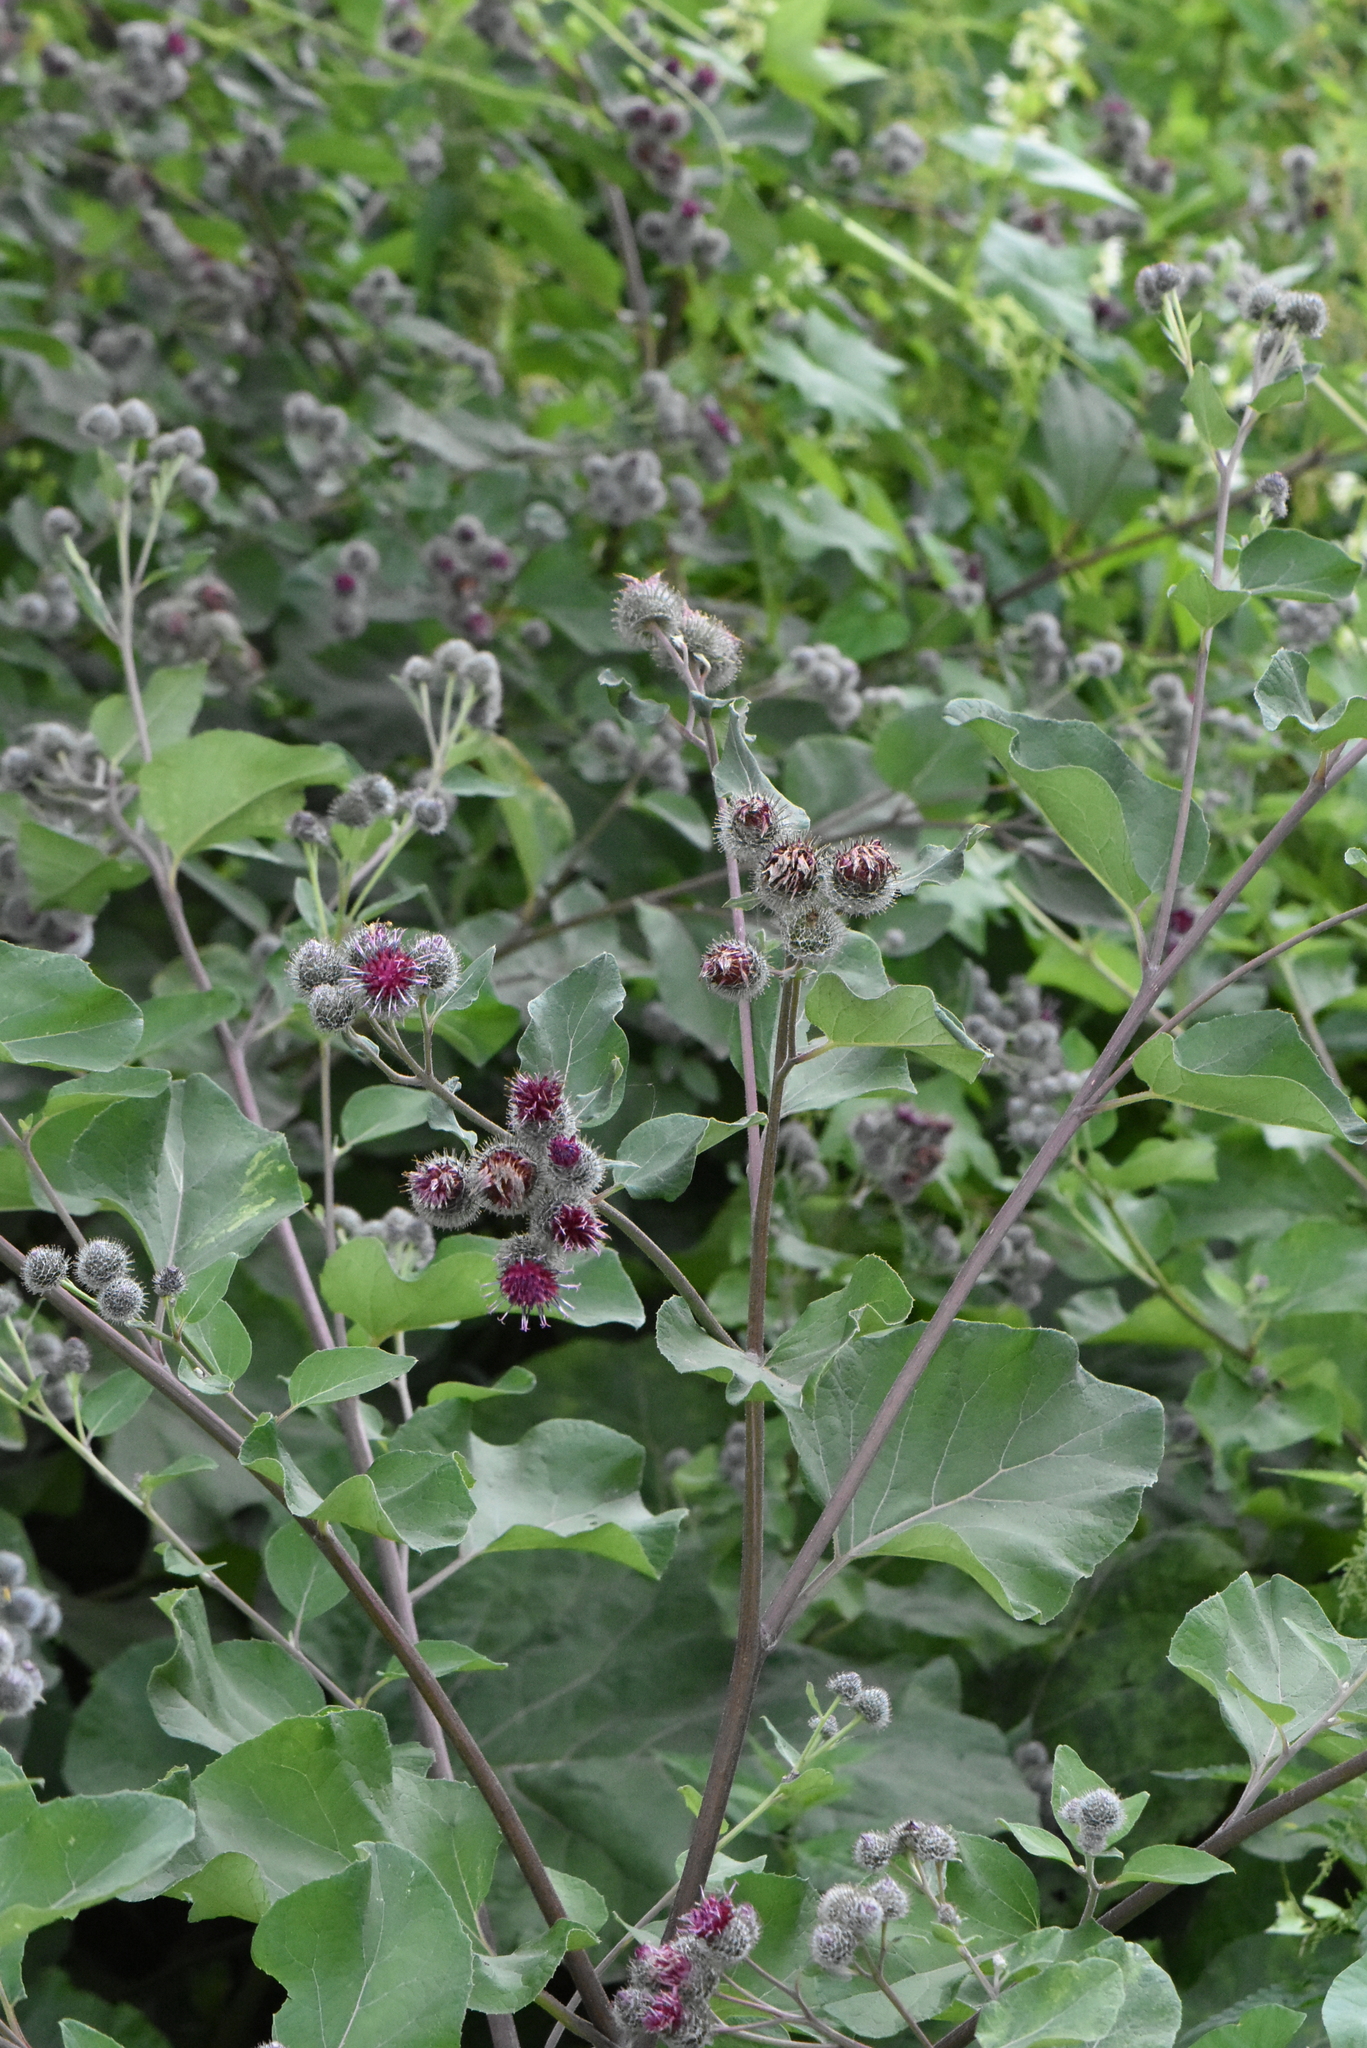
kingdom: Plantae
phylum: Tracheophyta
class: Magnoliopsida
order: Asterales
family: Asteraceae
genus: Arctium
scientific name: Arctium tomentosum
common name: Woolly burdock
